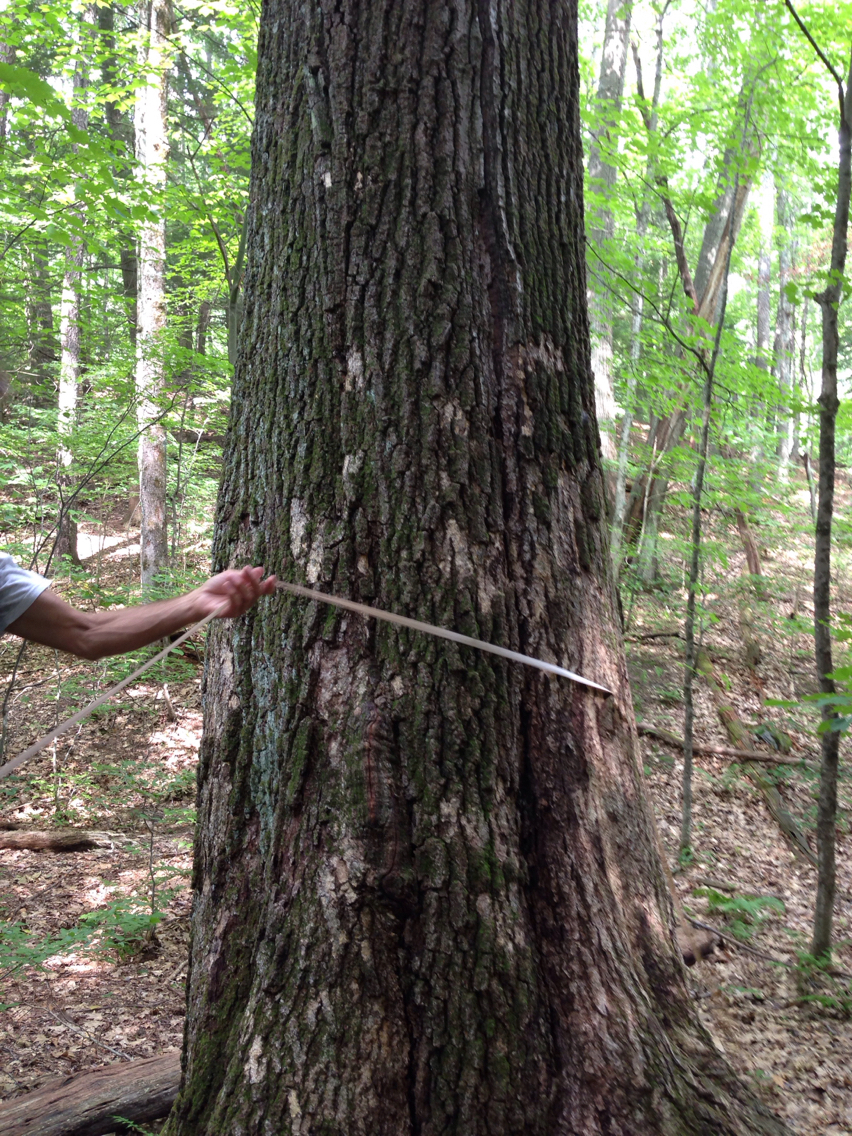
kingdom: Plantae
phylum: Tracheophyta
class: Magnoliopsida
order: Fagales
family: Fagaceae
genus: Quercus
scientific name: Quercus rubra
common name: Red oak
